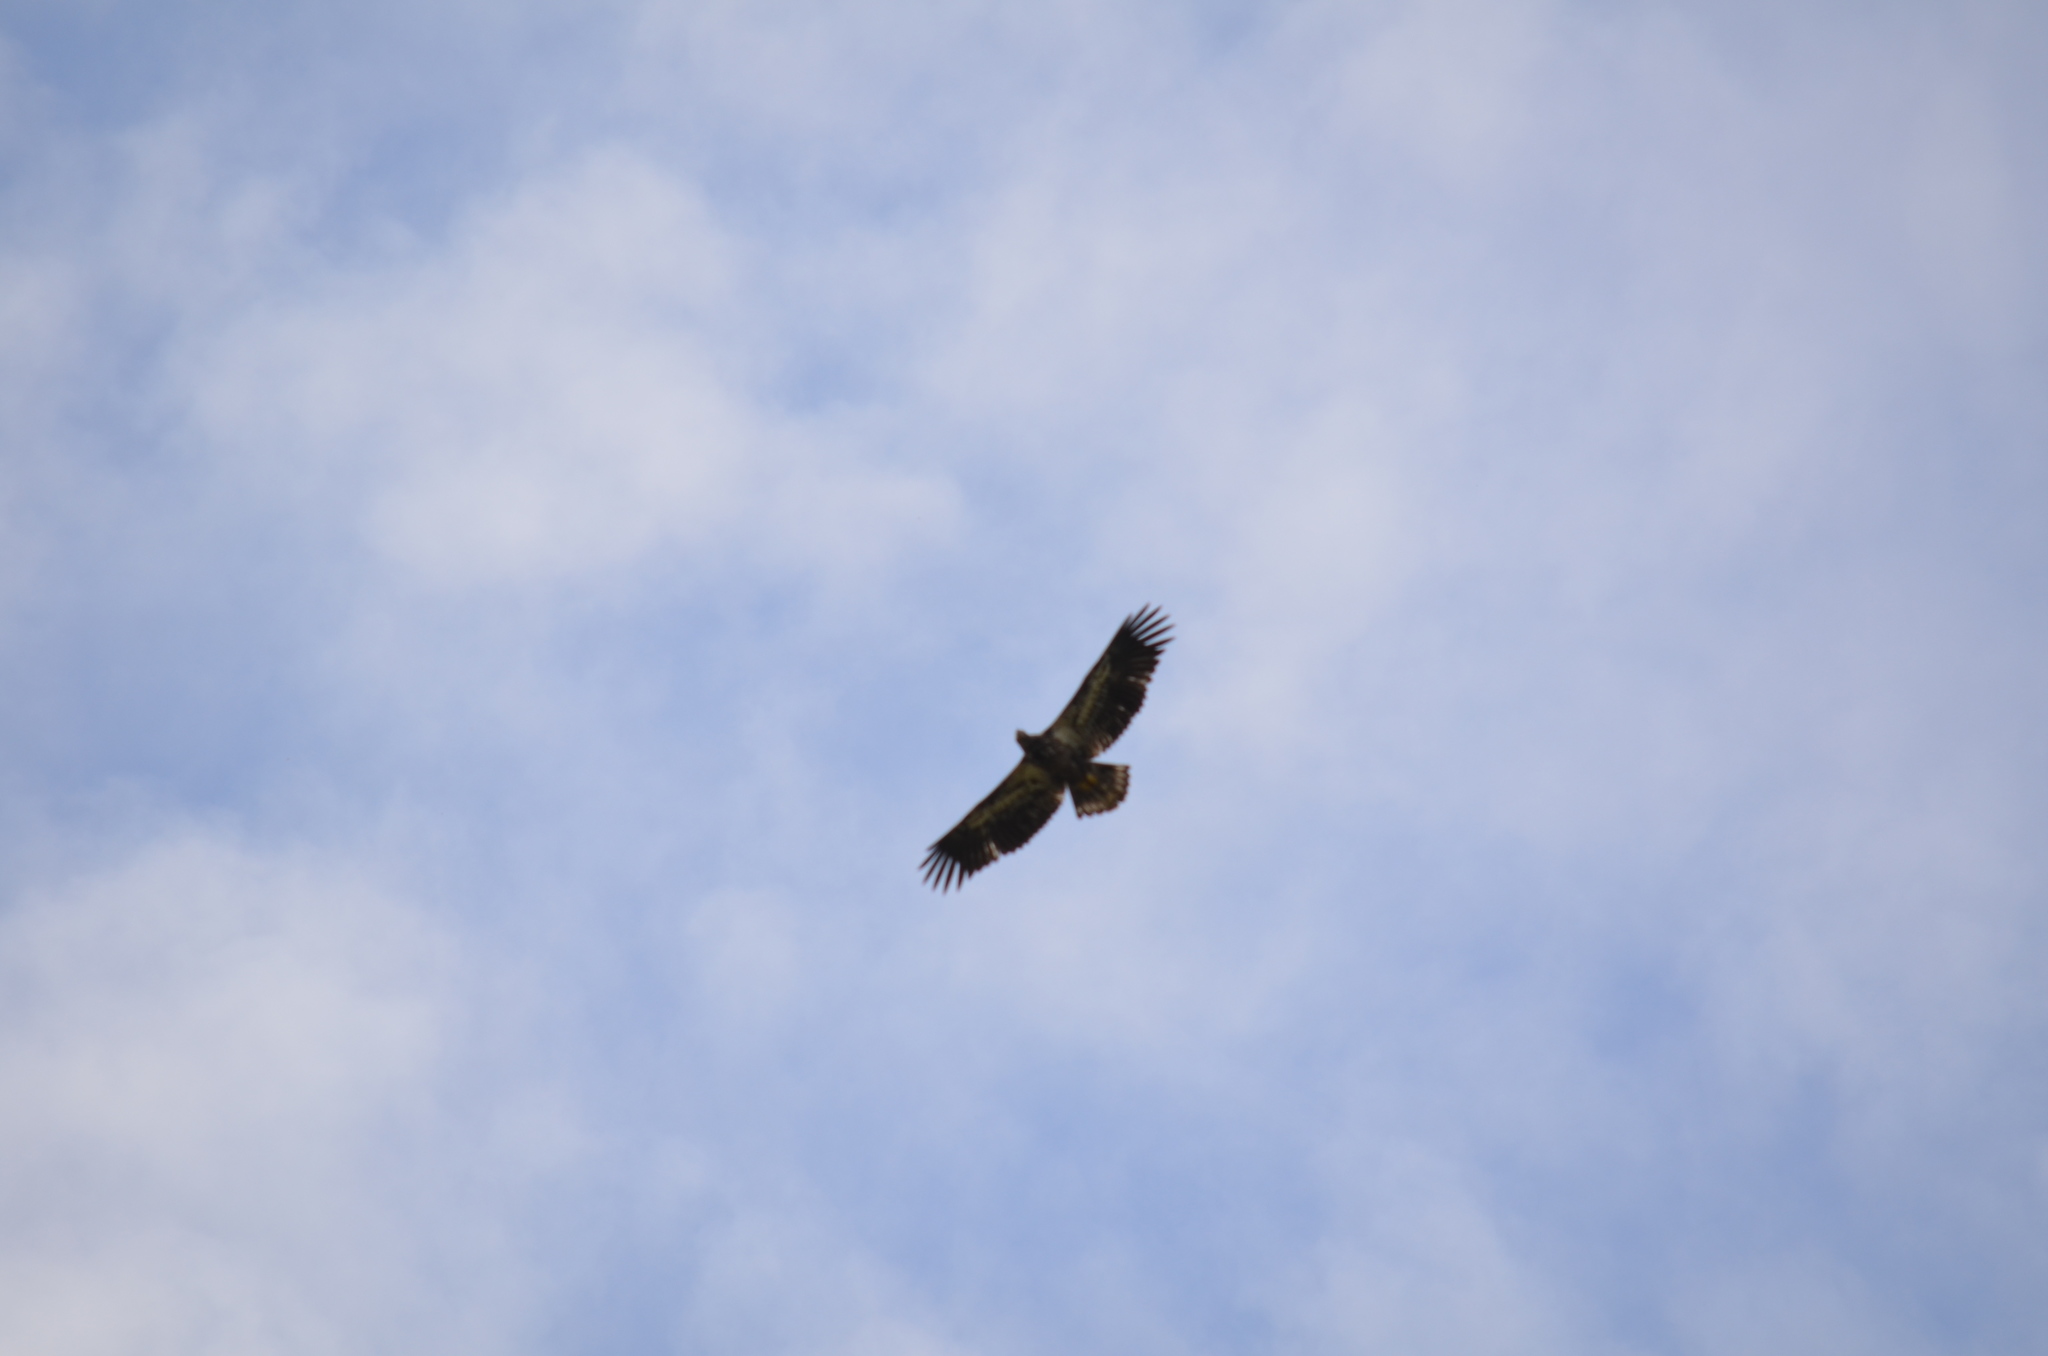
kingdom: Animalia
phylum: Chordata
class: Aves
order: Accipitriformes
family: Accipitridae
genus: Haliaeetus
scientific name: Haliaeetus leucocephalus
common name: Bald eagle
